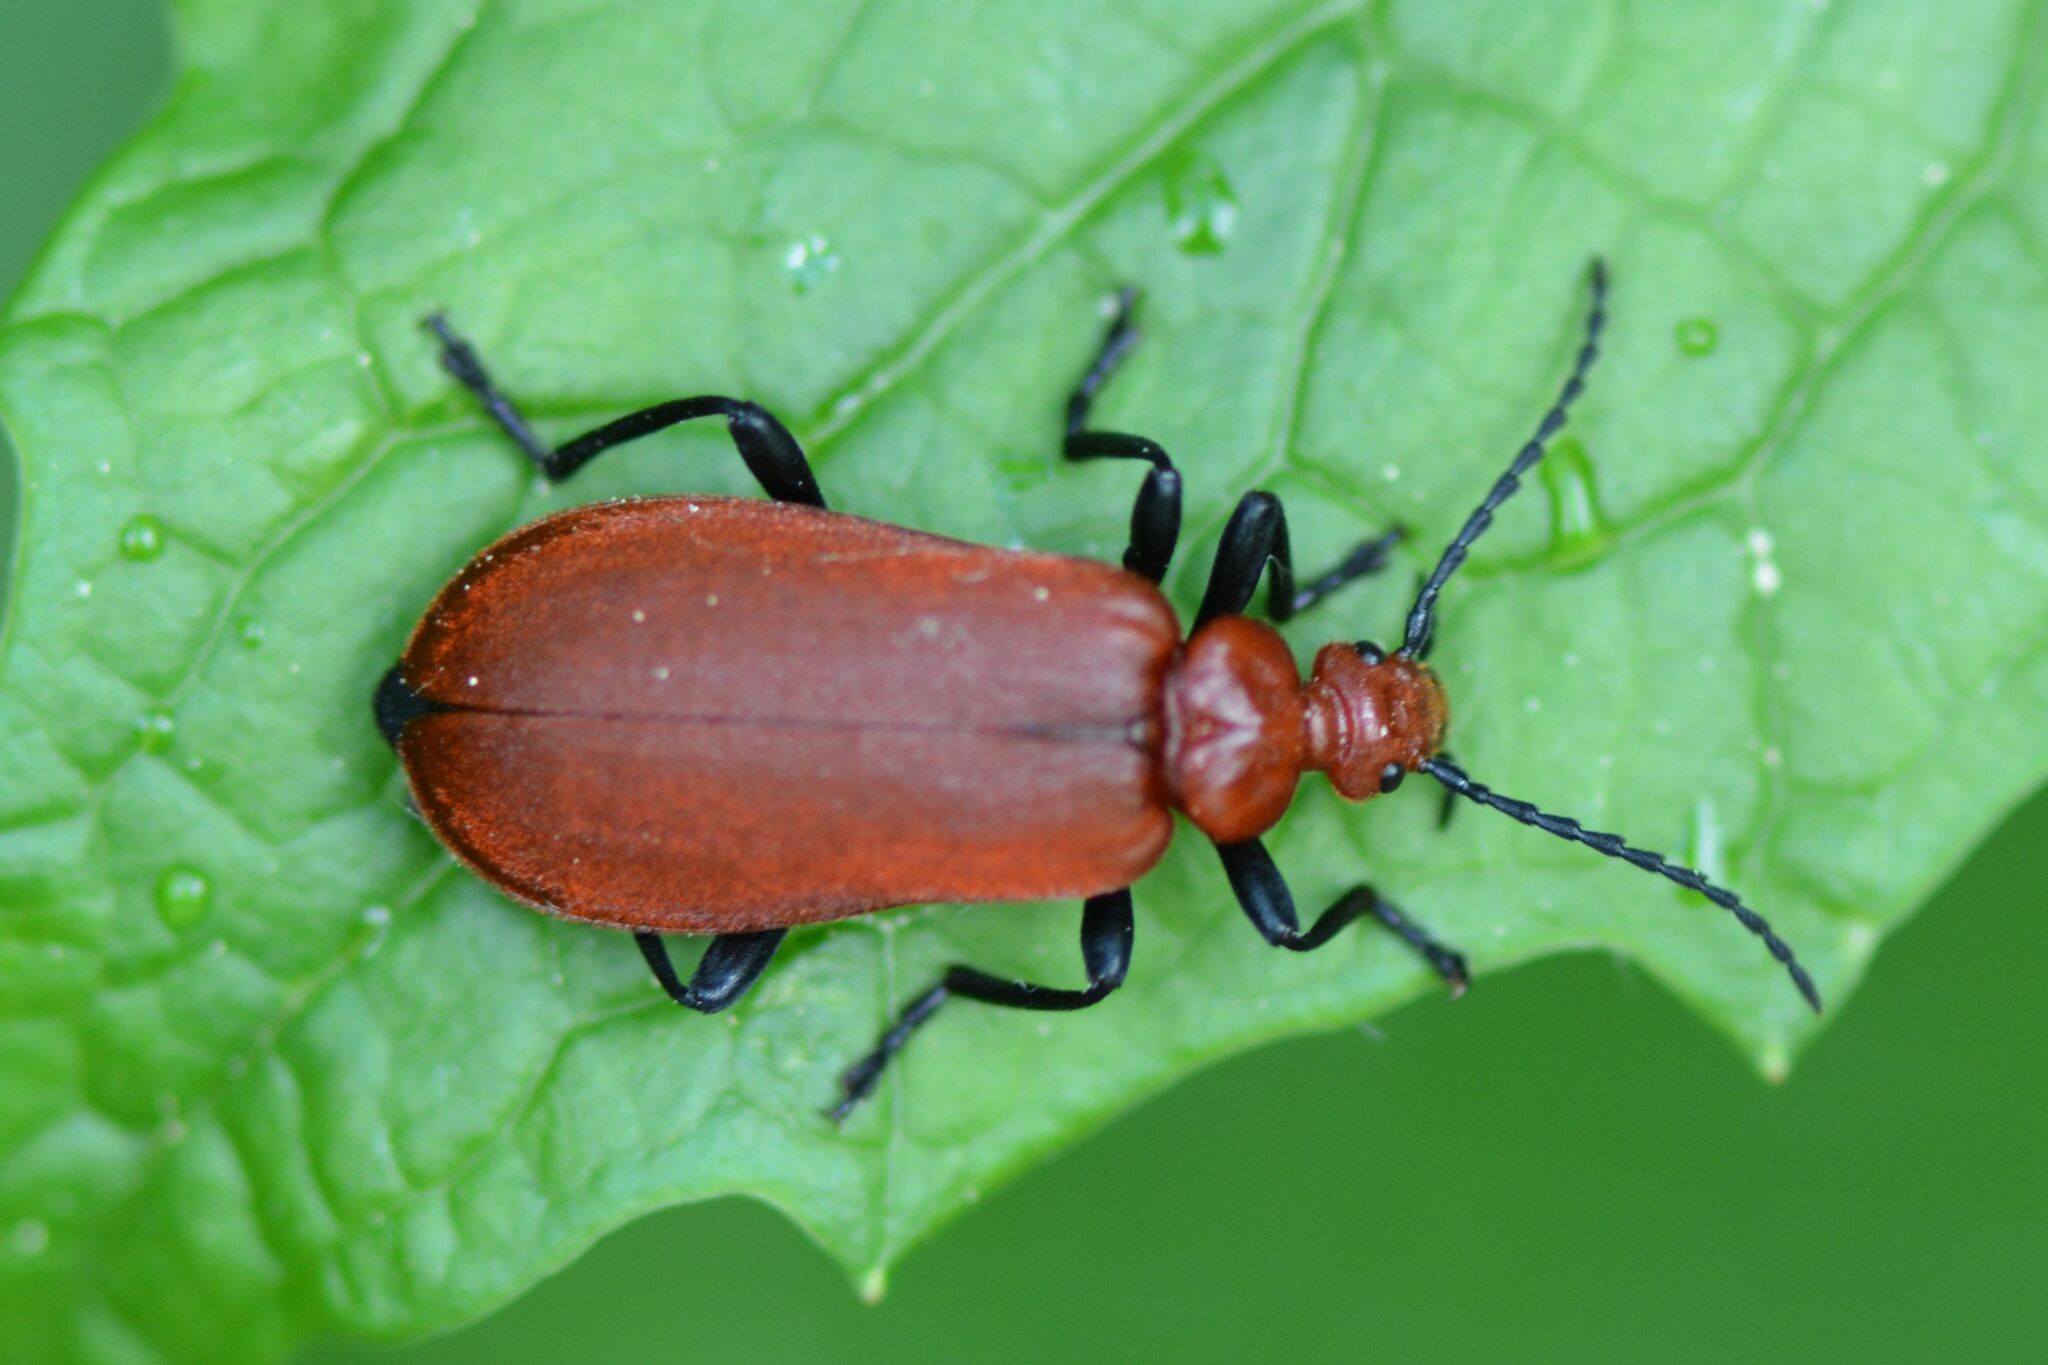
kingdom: Animalia
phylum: Arthropoda
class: Insecta
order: Coleoptera
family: Pyrochroidae
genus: Pyrochroa
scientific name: Pyrochroa serraticornis
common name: Red-headed cardinal beetle
